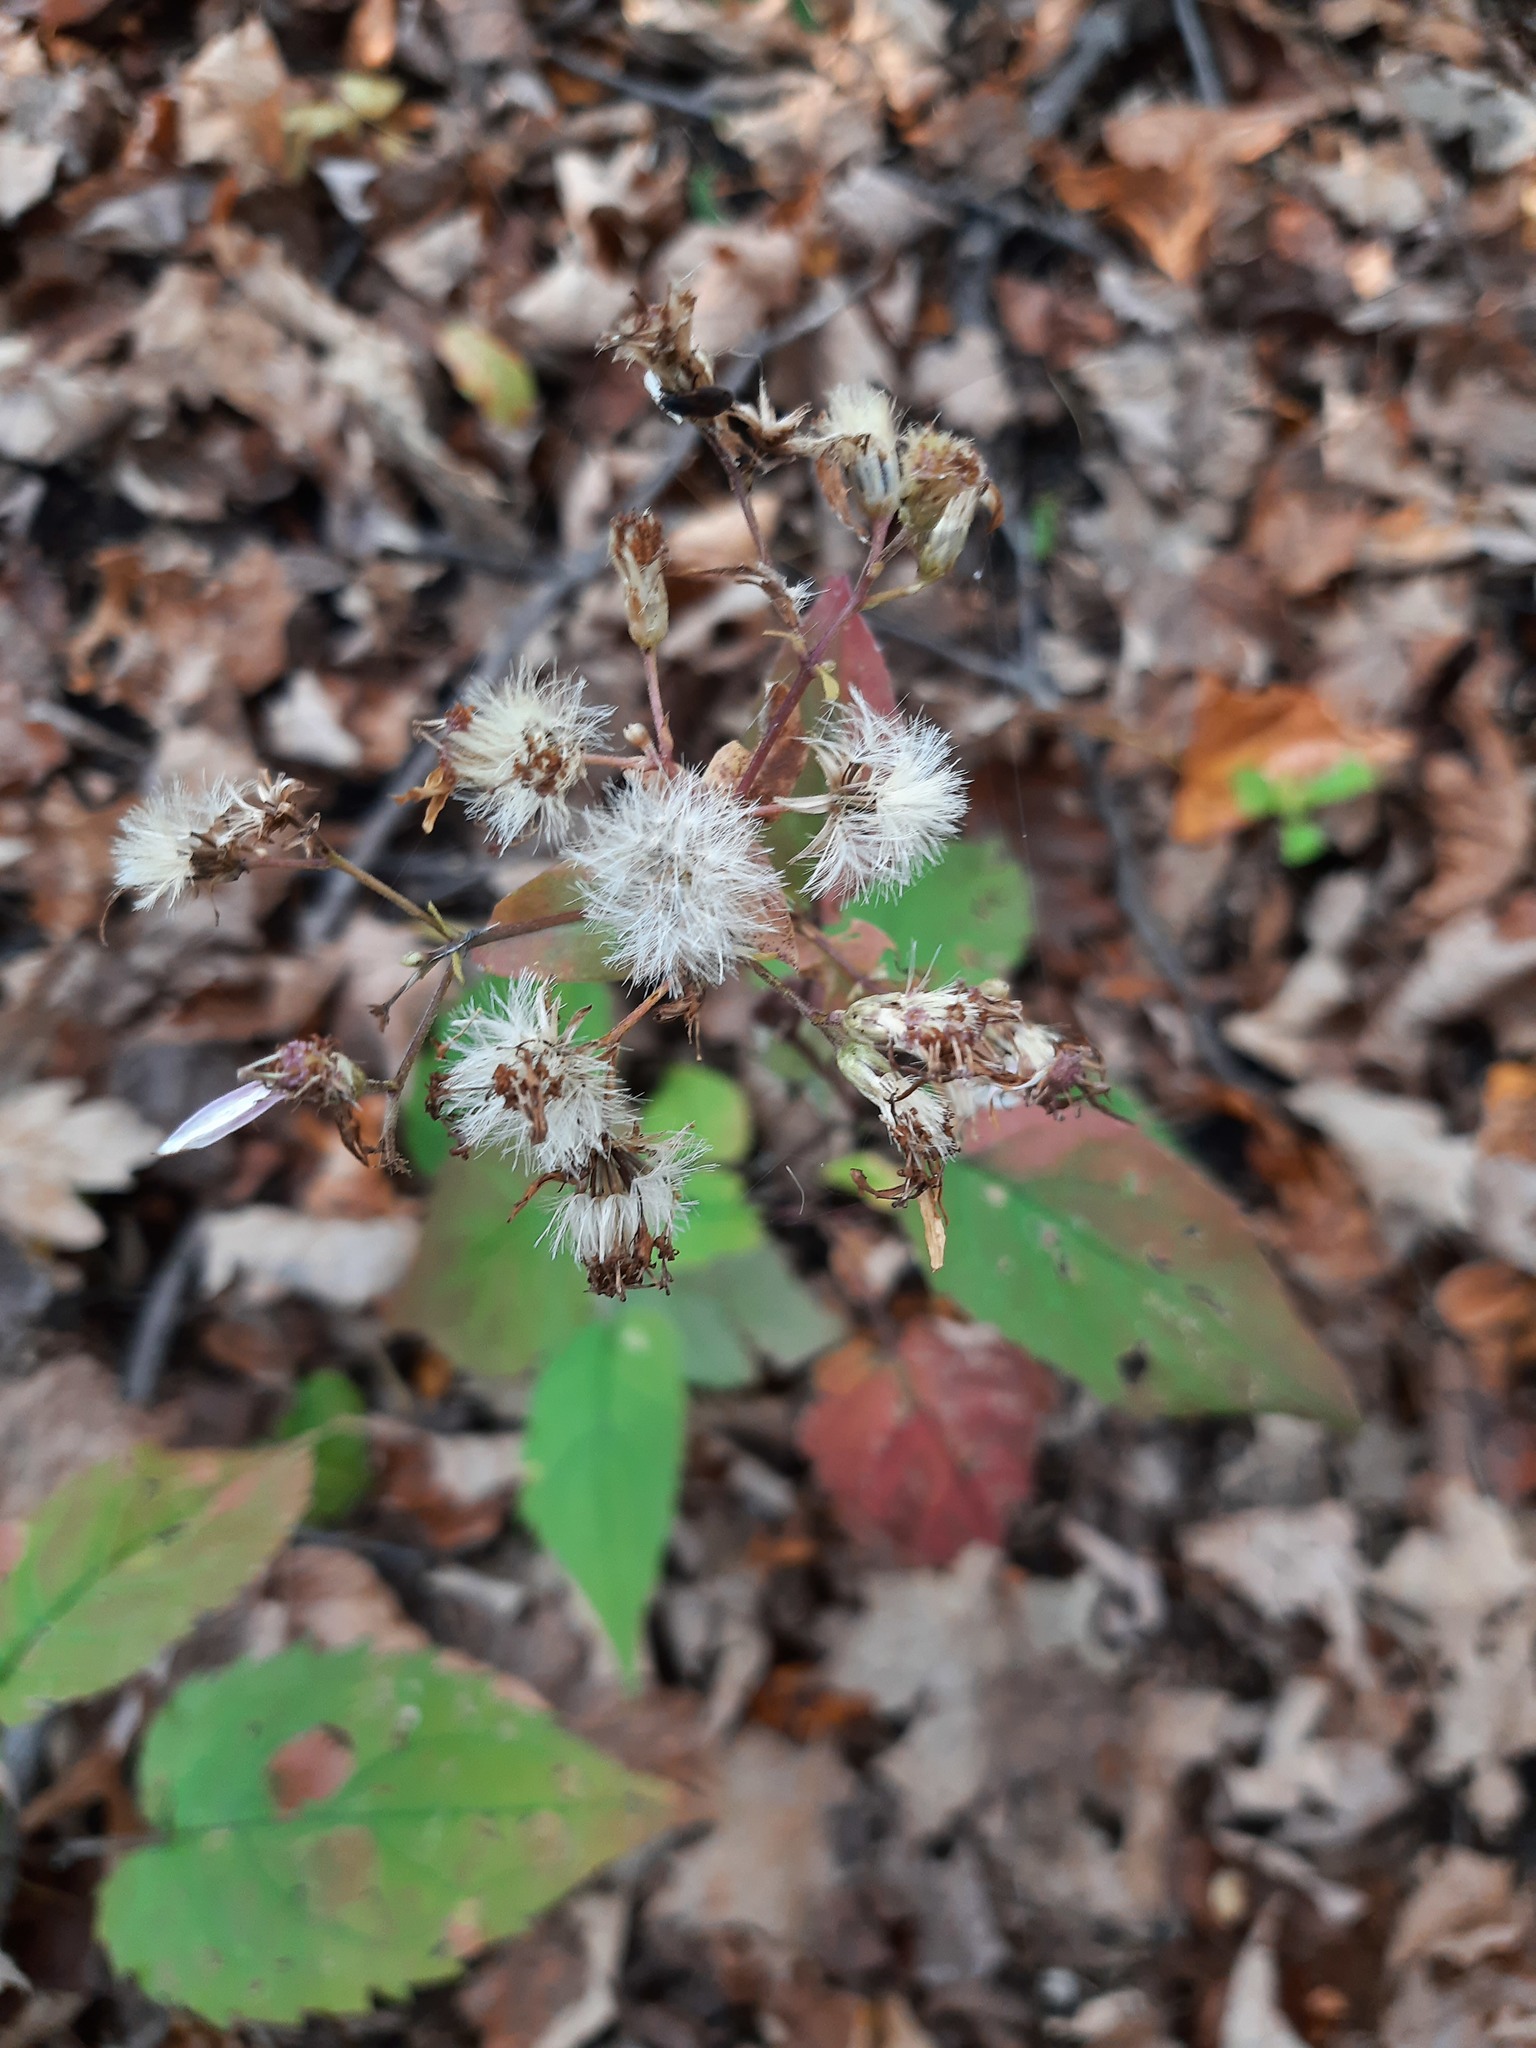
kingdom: Plantae
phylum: Tracheophyta
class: Magnoliopsida
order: Asterales
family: Asteraceae
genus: Eurybia
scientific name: Eurybia divaricata
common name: White wood aster
